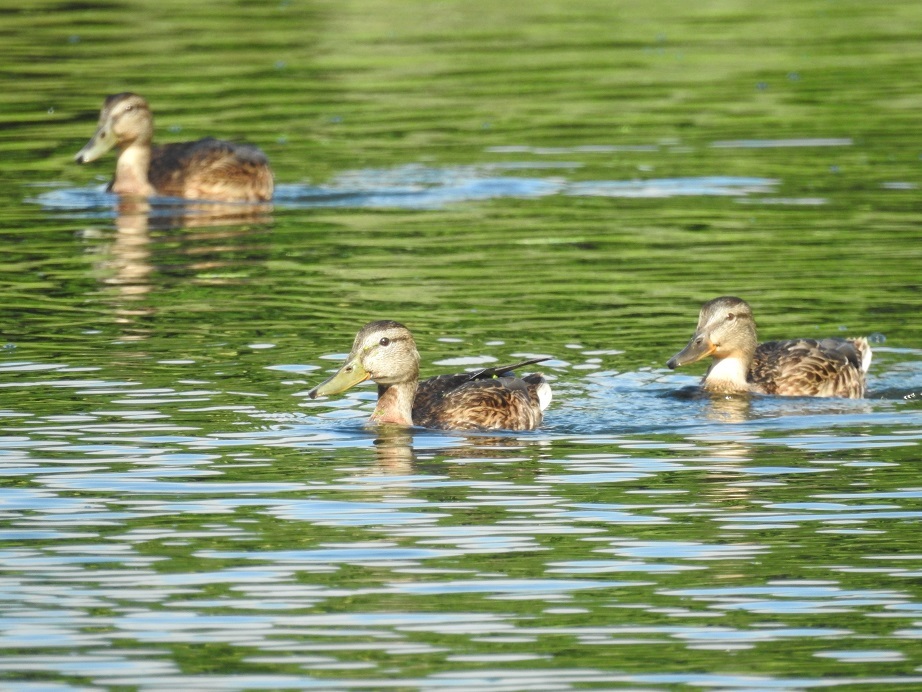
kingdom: Animalia
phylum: Chordata
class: Aves
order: Anseriformes
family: Anatidae
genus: Anas
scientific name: Anas platyrhynchos
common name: Mallard
